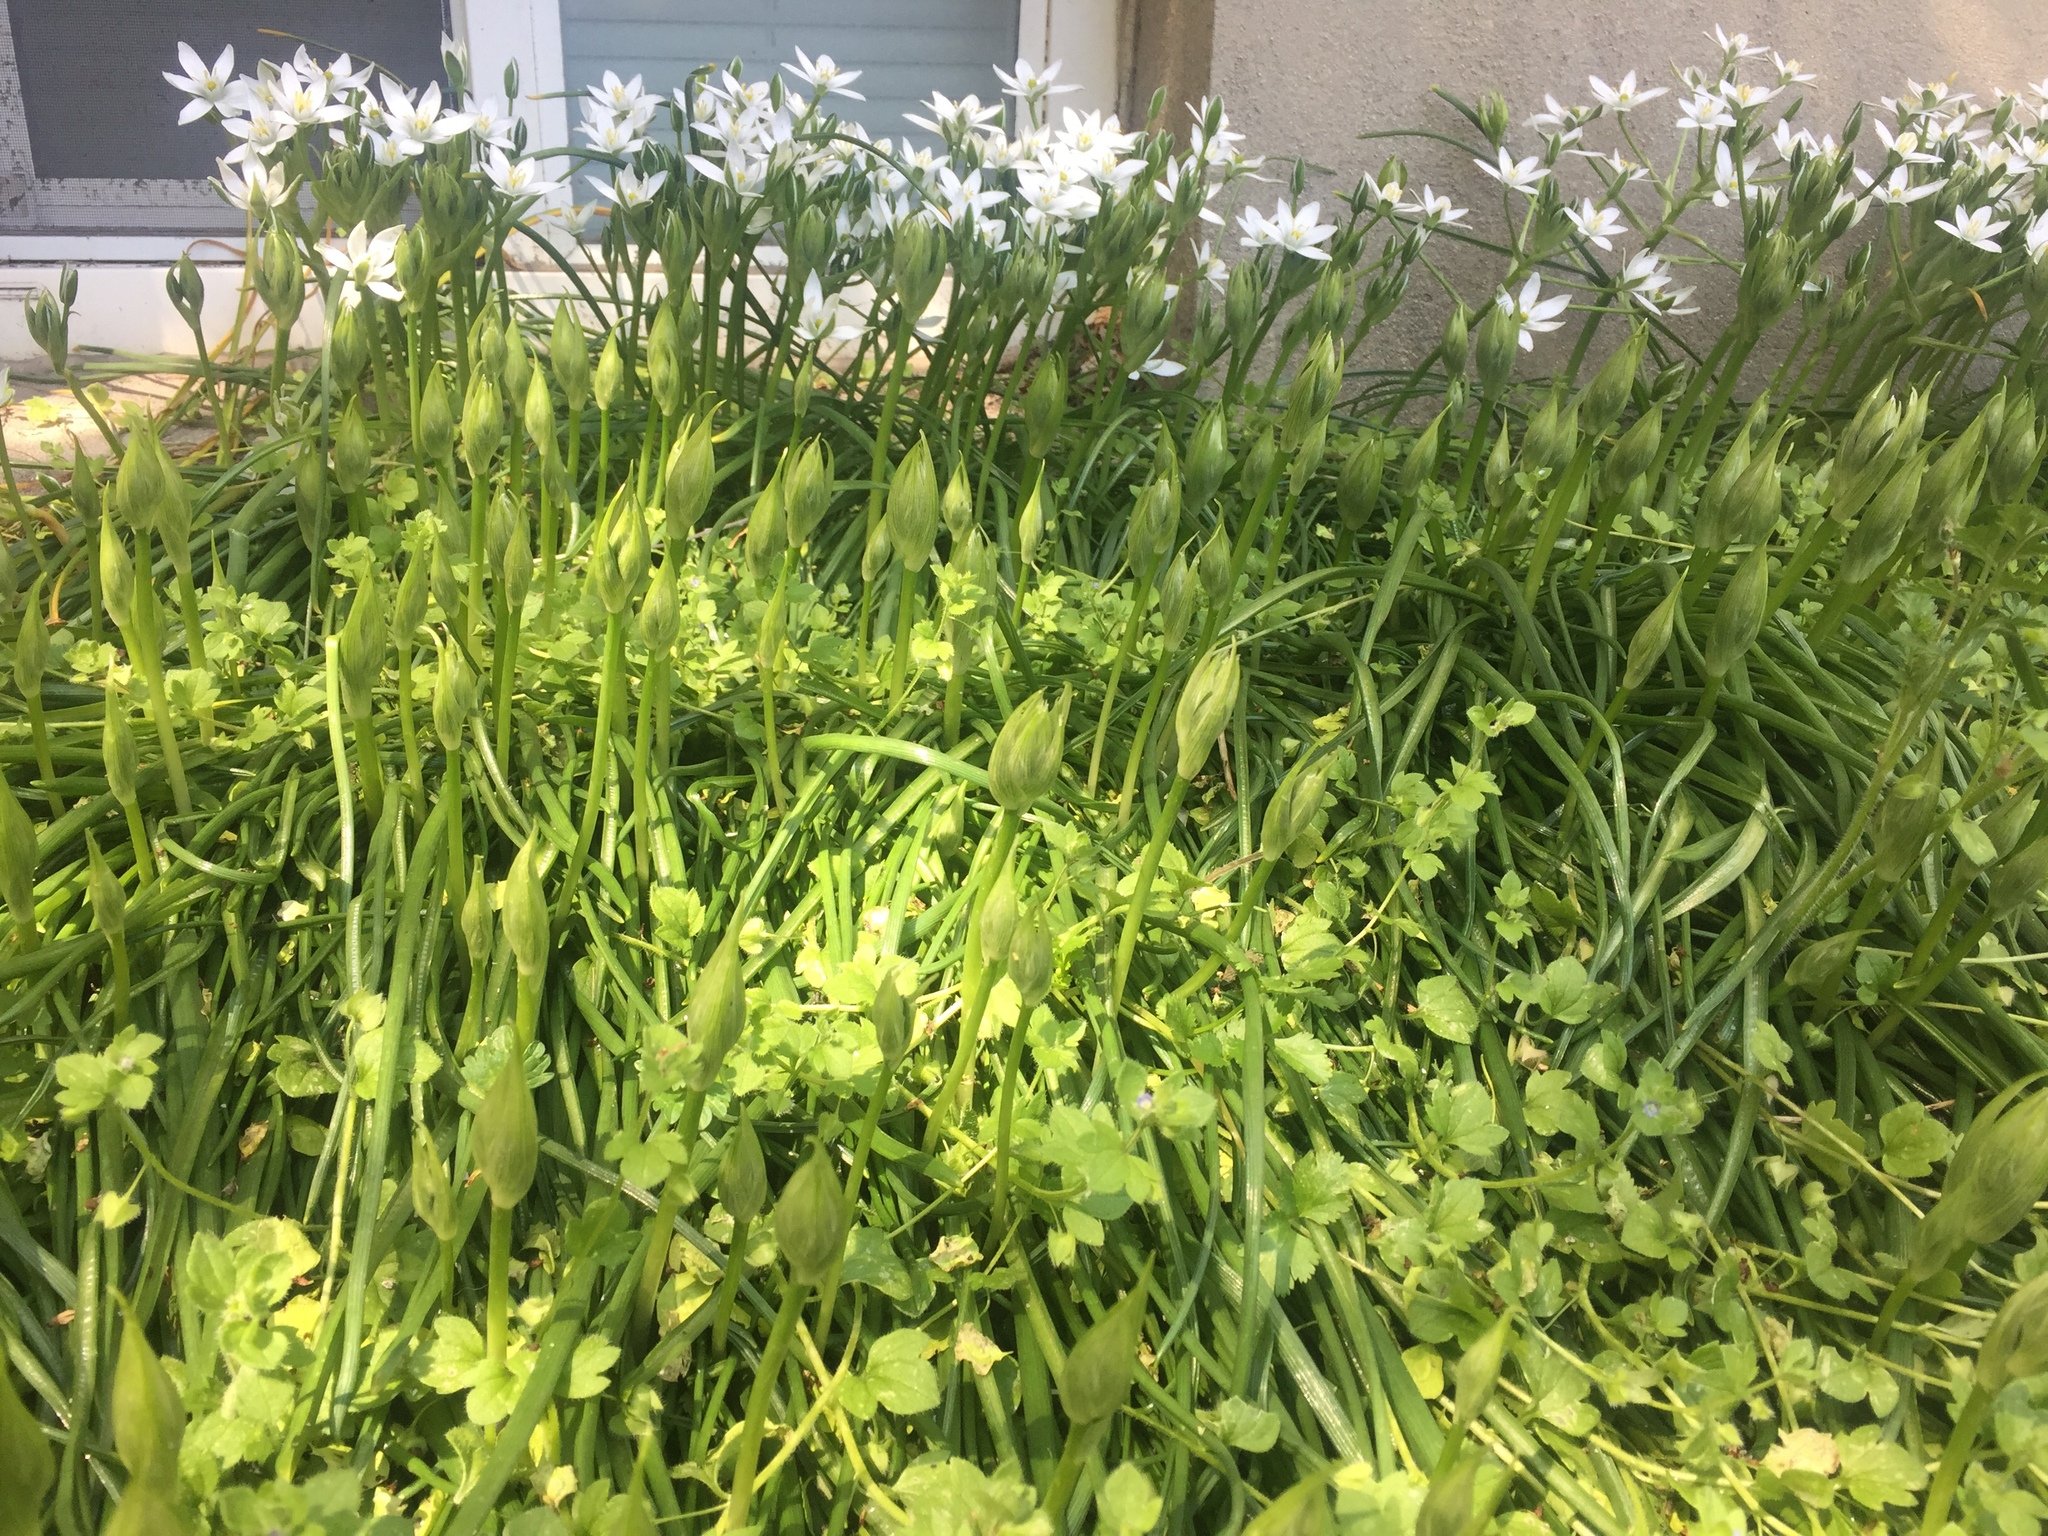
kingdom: Plantae
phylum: Tracheophyta
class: Liliopsida
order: Asparagales
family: Asparagaceae
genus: Ornithogalum
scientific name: Ornithogalum umbellatum
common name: Garden star-of-bethlehem
